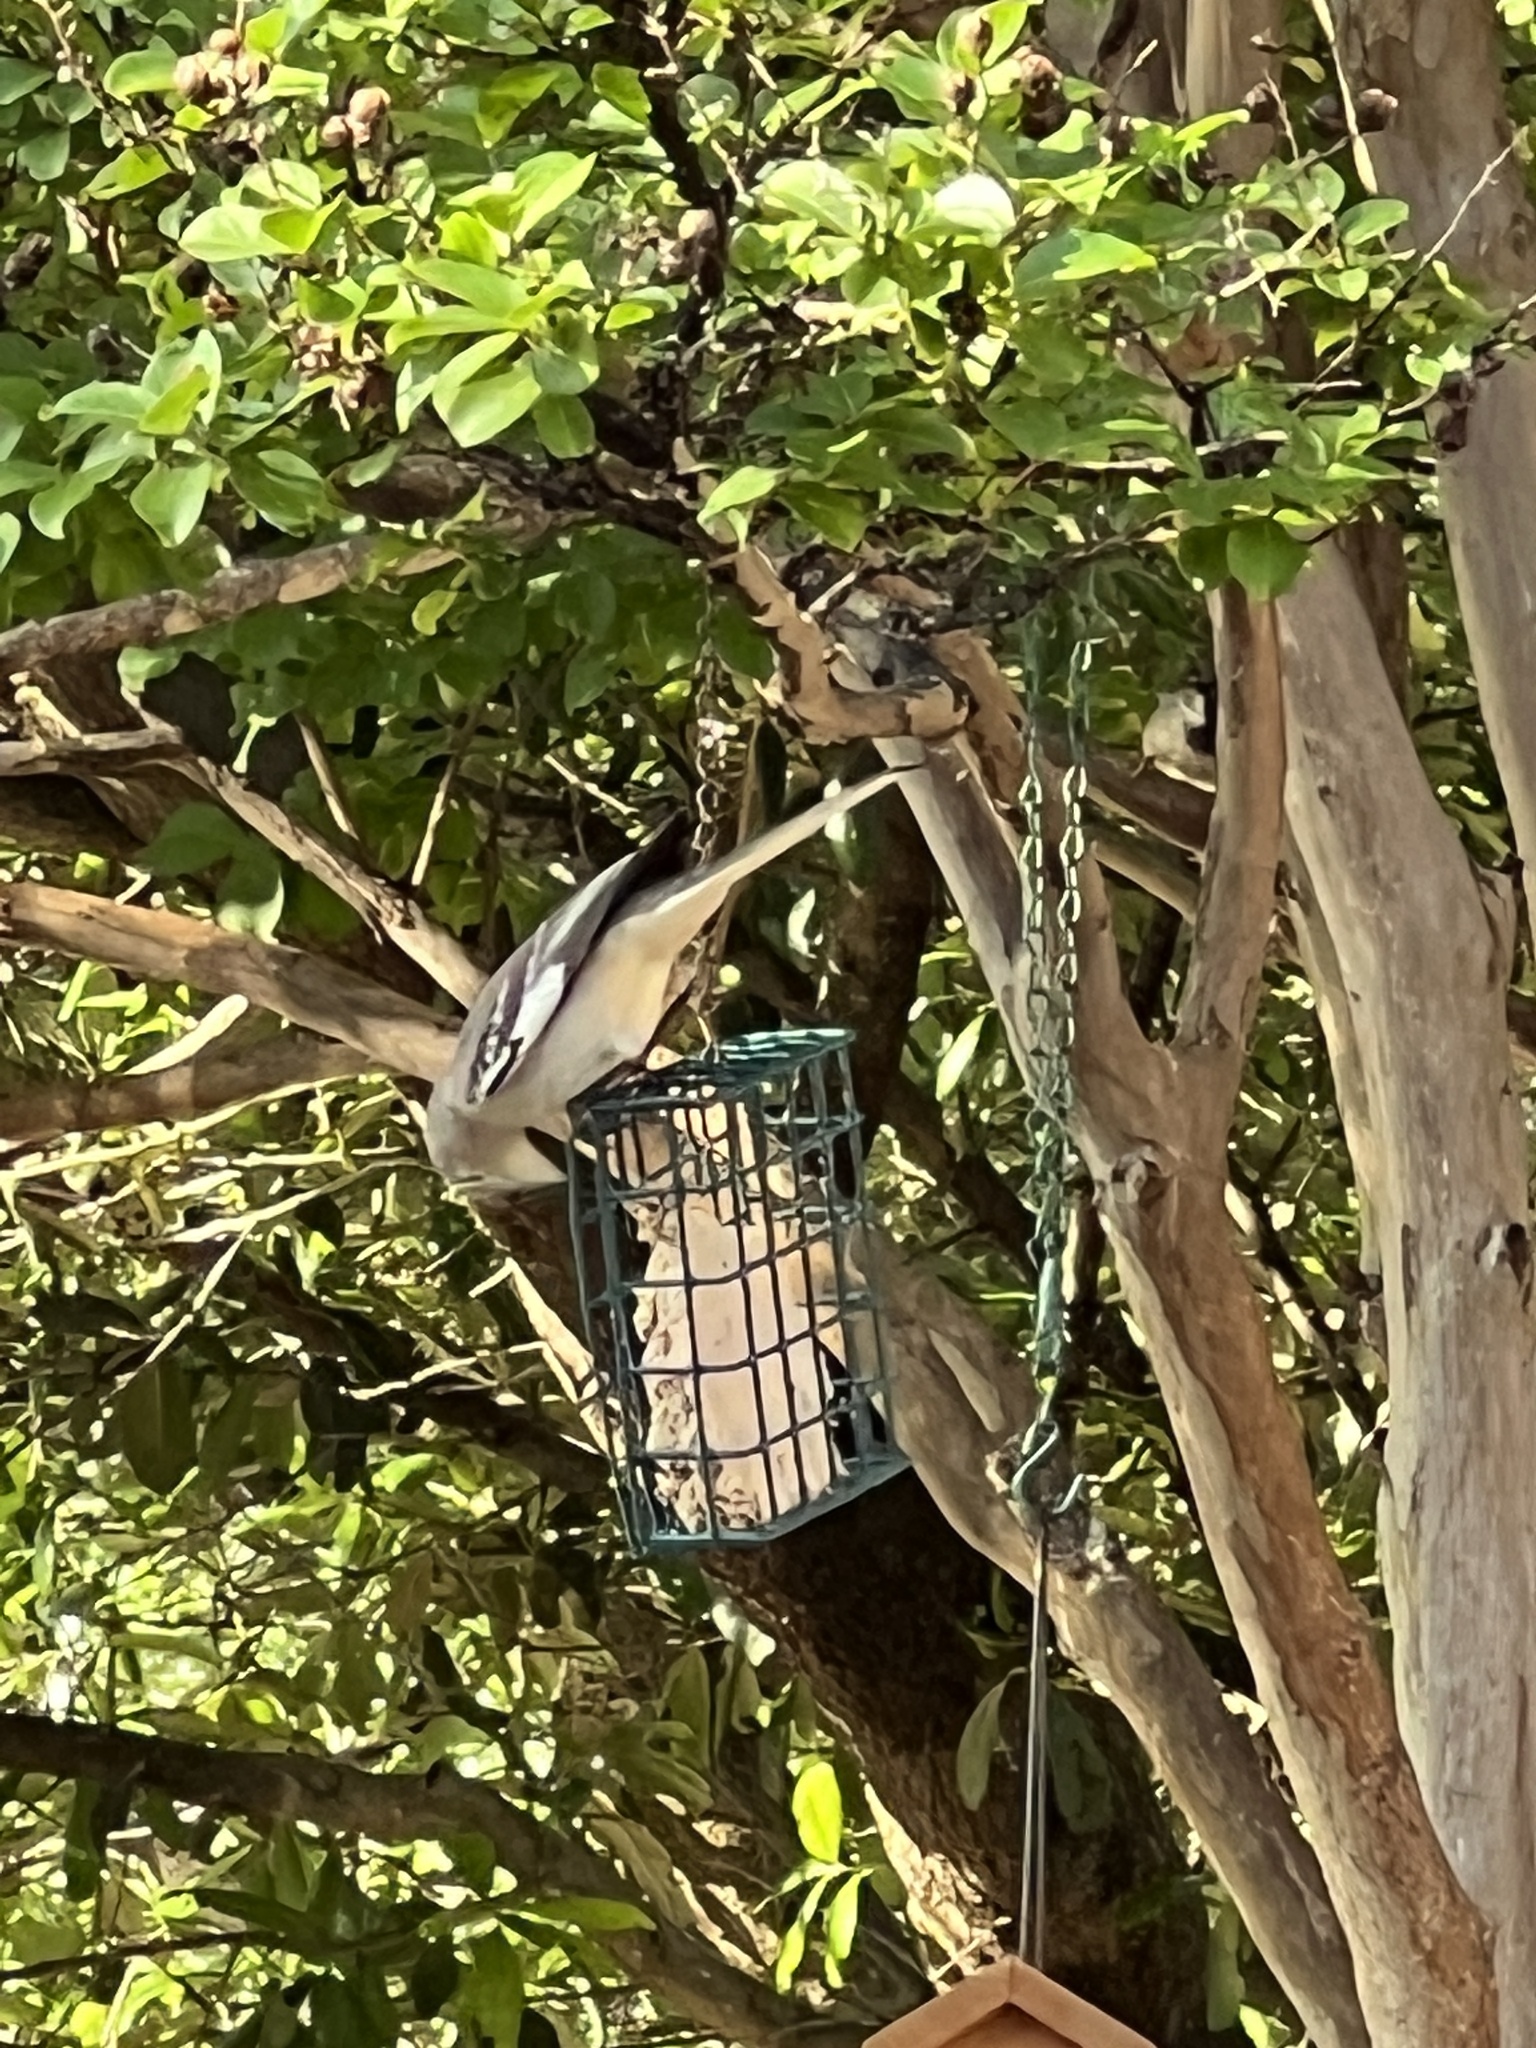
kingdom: Animalia
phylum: Chordata
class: Aves
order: Passeriformes
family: Mimidae
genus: Mimus
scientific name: Mimus polyglottos
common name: Northern mockingbird
